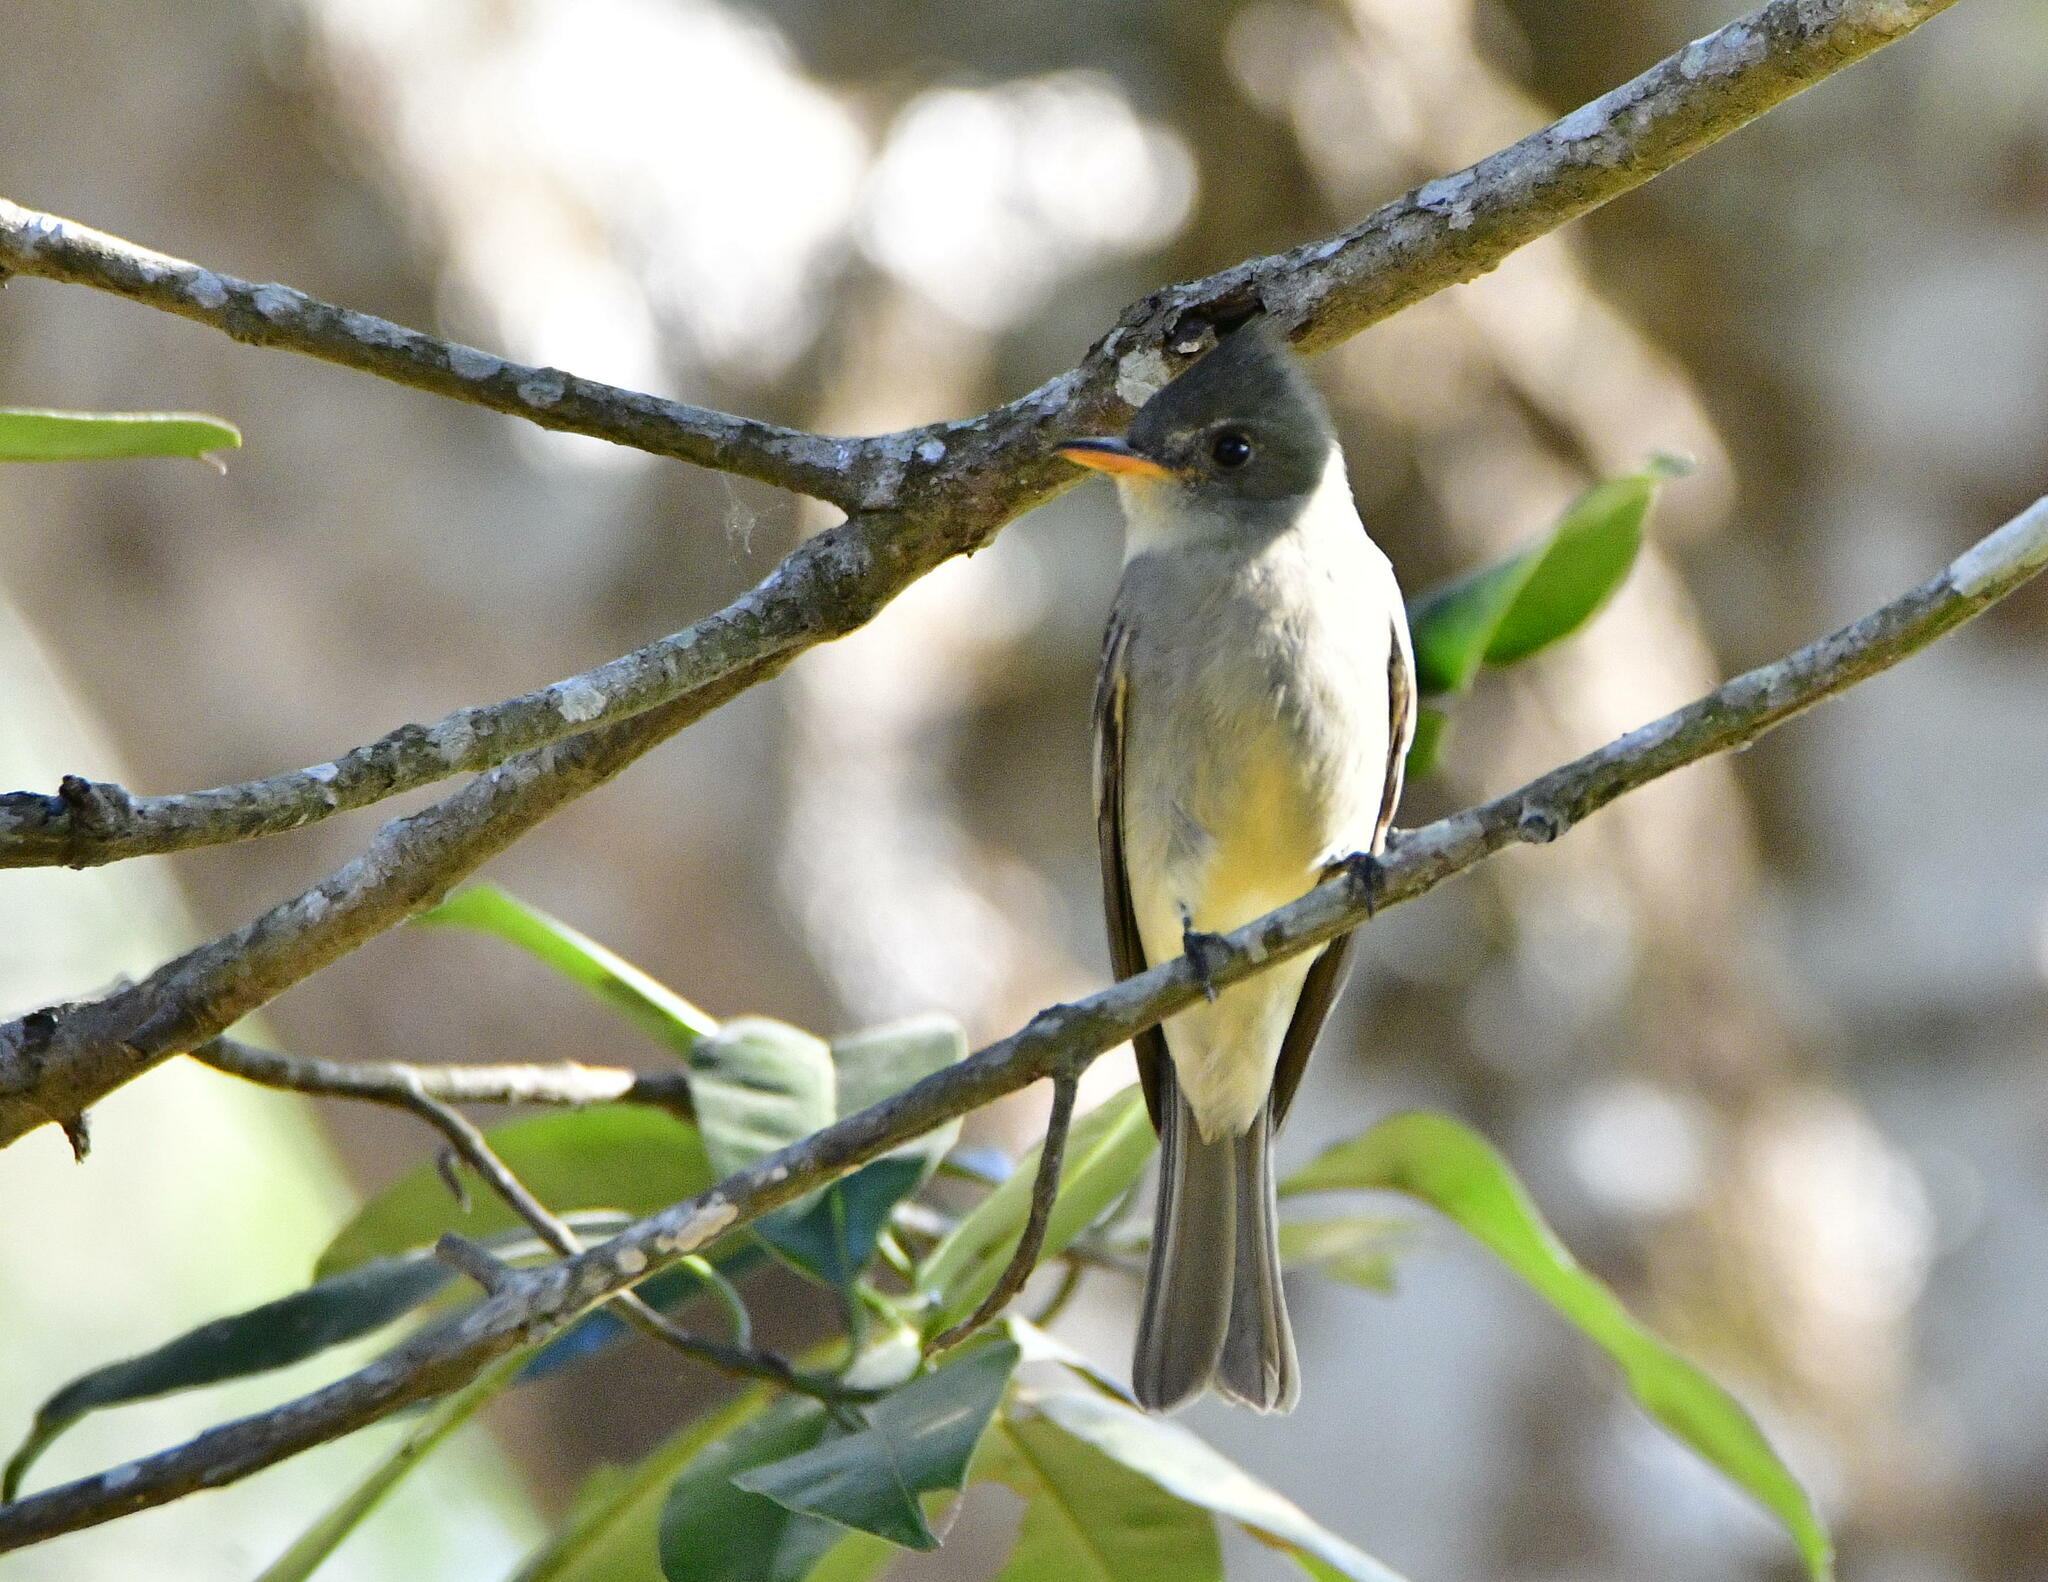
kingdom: Animalia
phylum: Chordata
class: Aves
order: Passeriformes
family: Tyrannidae
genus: Contopus
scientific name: Contopus pertinax
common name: Greater pewee
